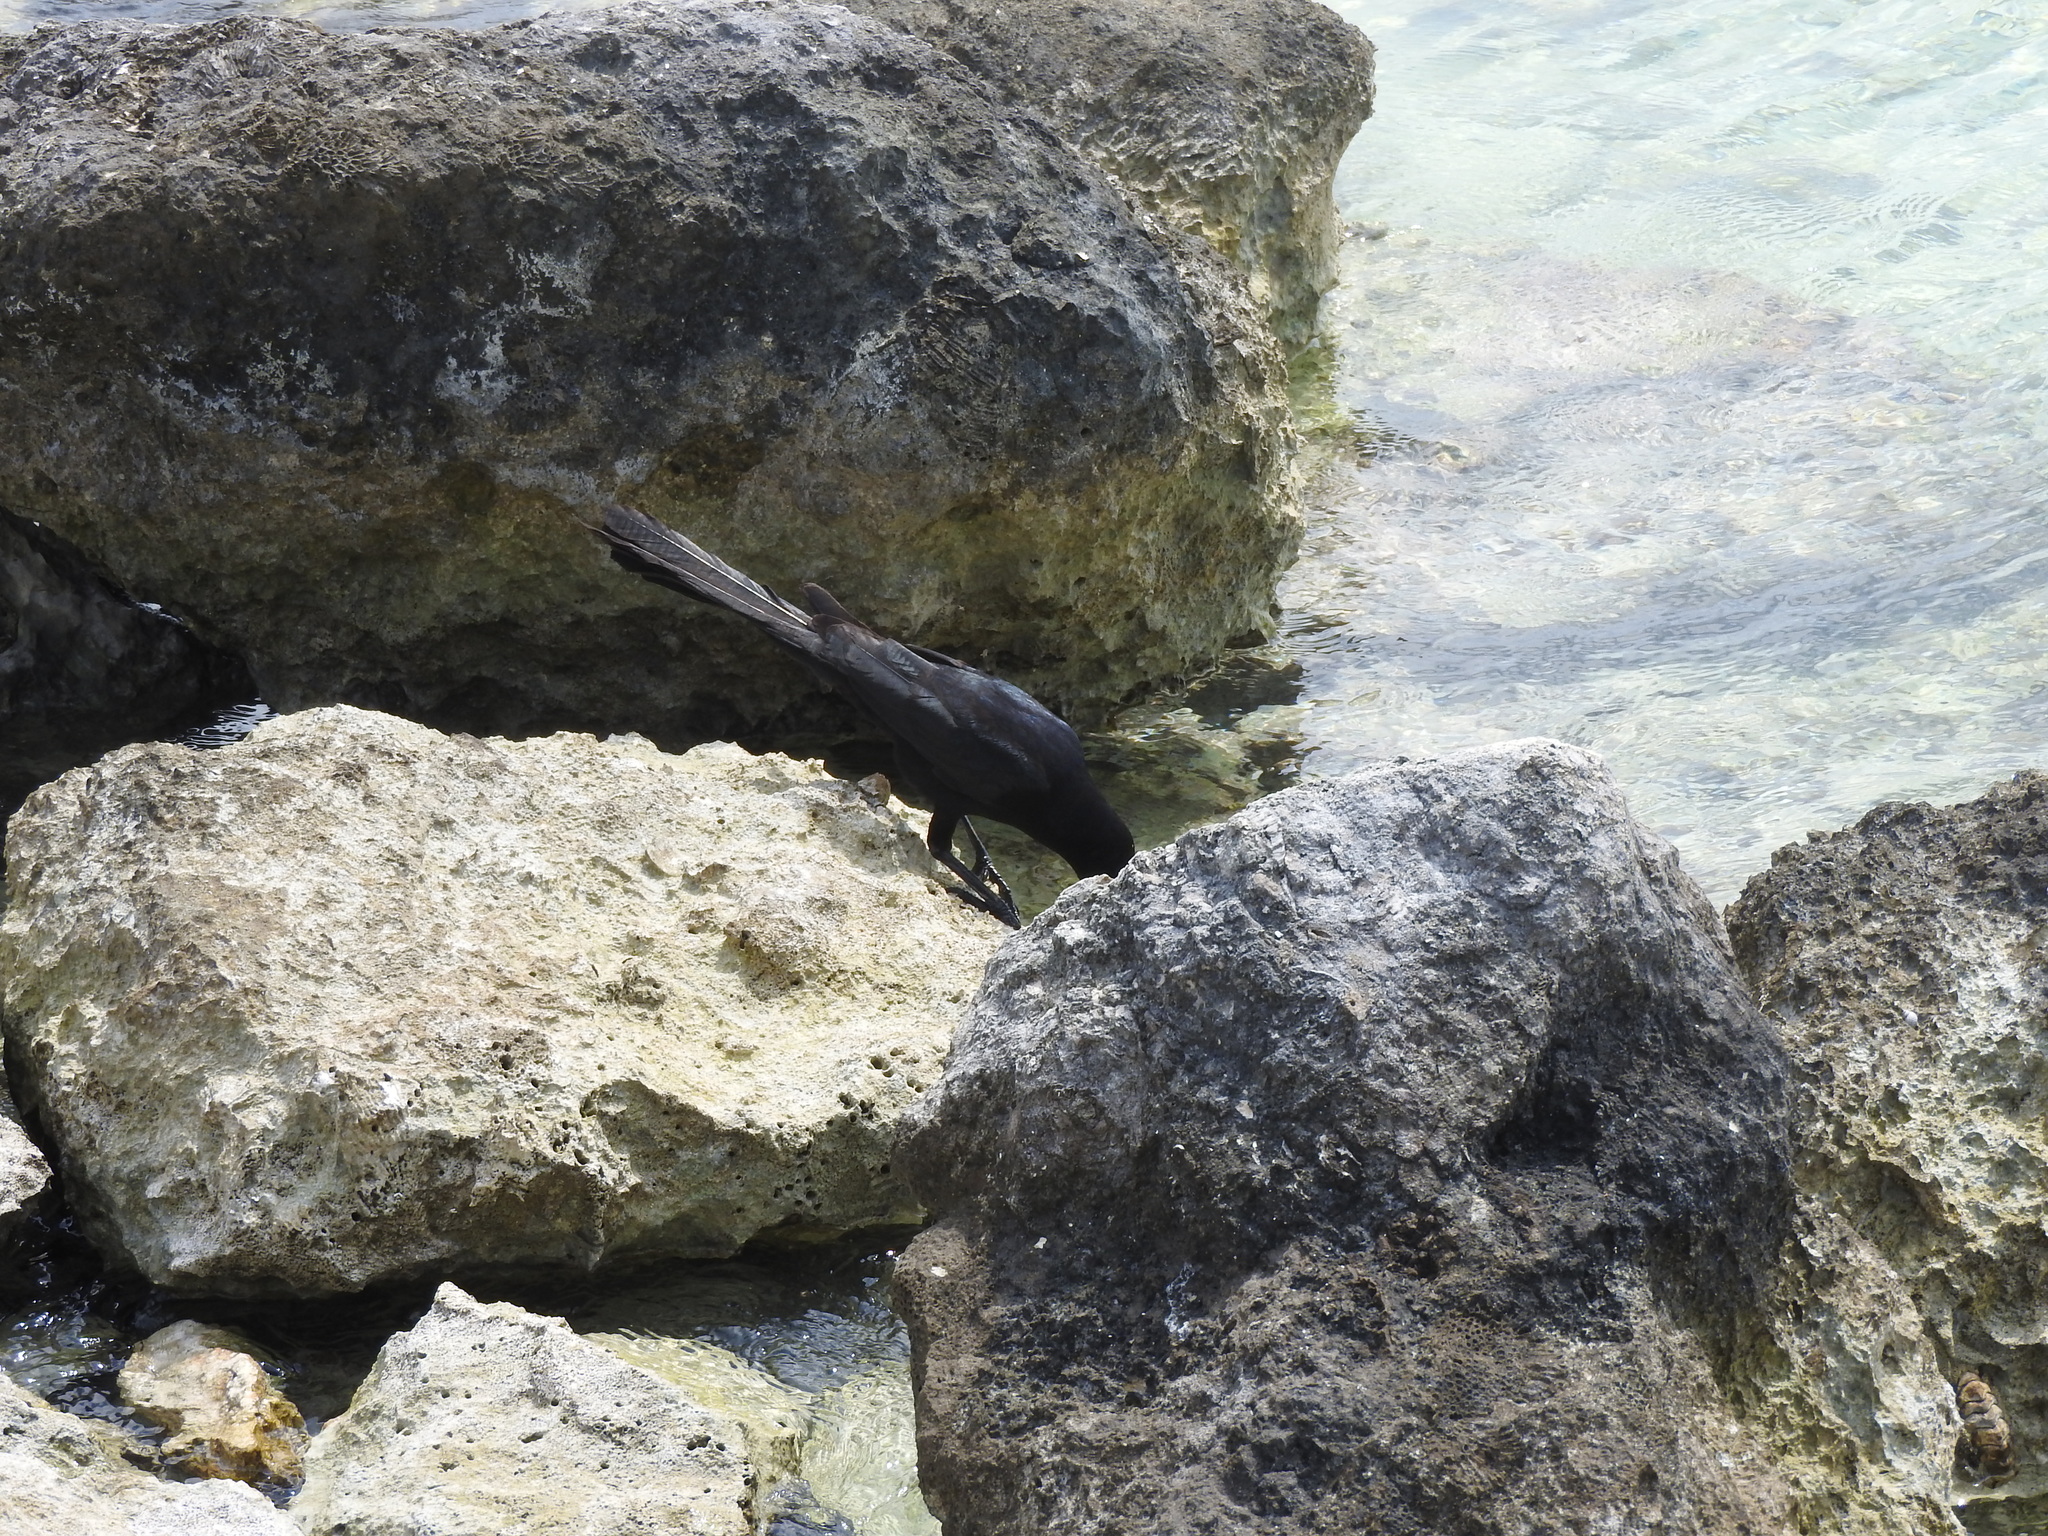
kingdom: Animalia
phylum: Chordata
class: Aves
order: Passeriformes
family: Icteridae
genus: Quiscalus
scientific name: Quiscalus mexicanus
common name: Great-tailed grackle
